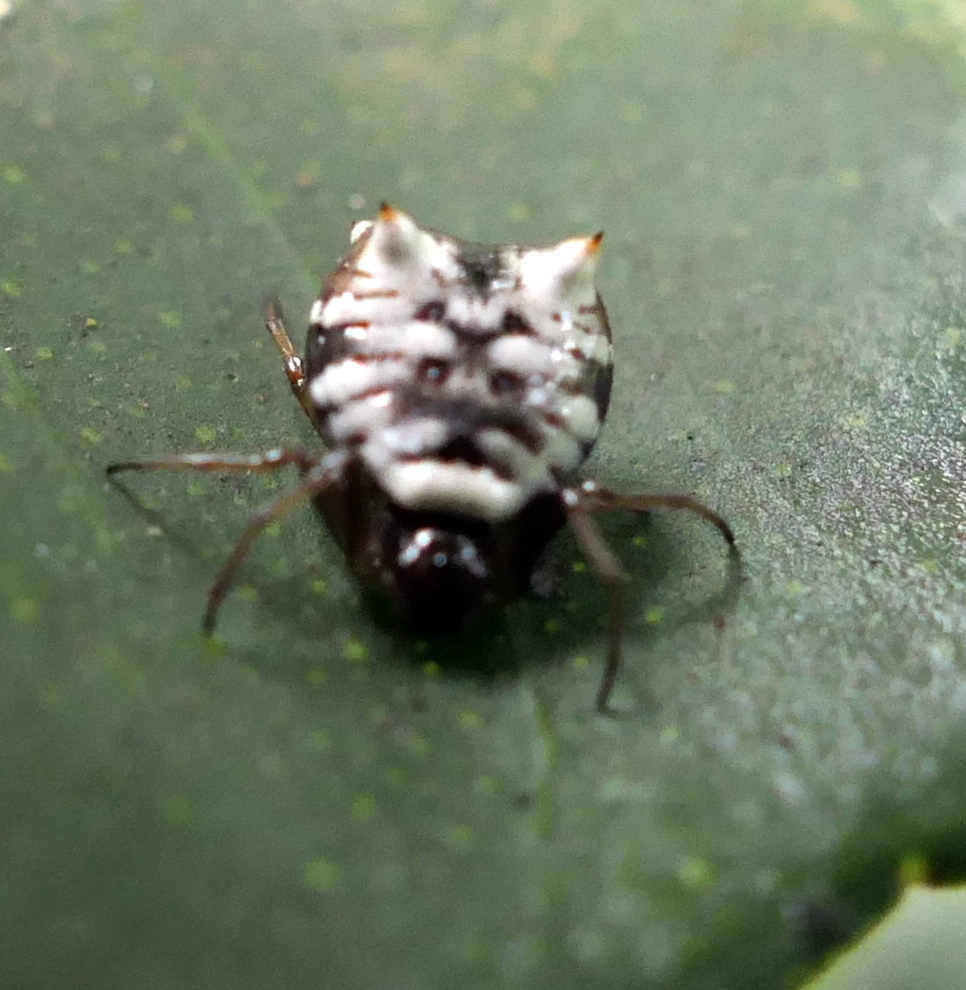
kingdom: Animalia
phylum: Arthropoda
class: Arachnida
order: Araneae
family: Araneidae
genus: Micrathena
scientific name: Micrathena patruelis
